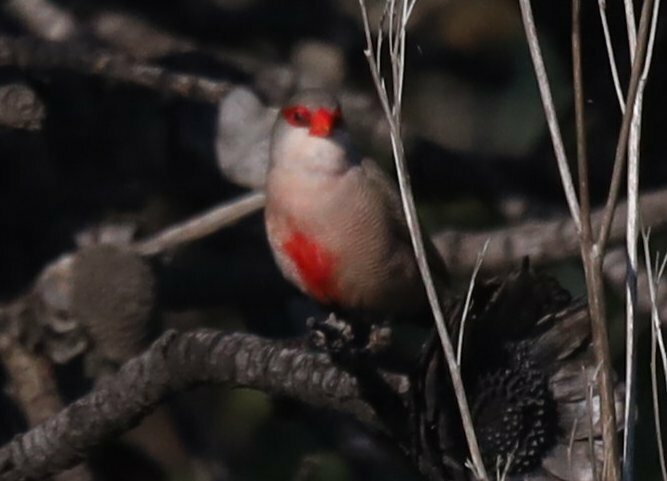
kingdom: Animalia
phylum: Chordata
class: Aves
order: Passeriformes
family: Estrildidae
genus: Estrilda
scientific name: Estrilda astrild
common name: Common waxbill
